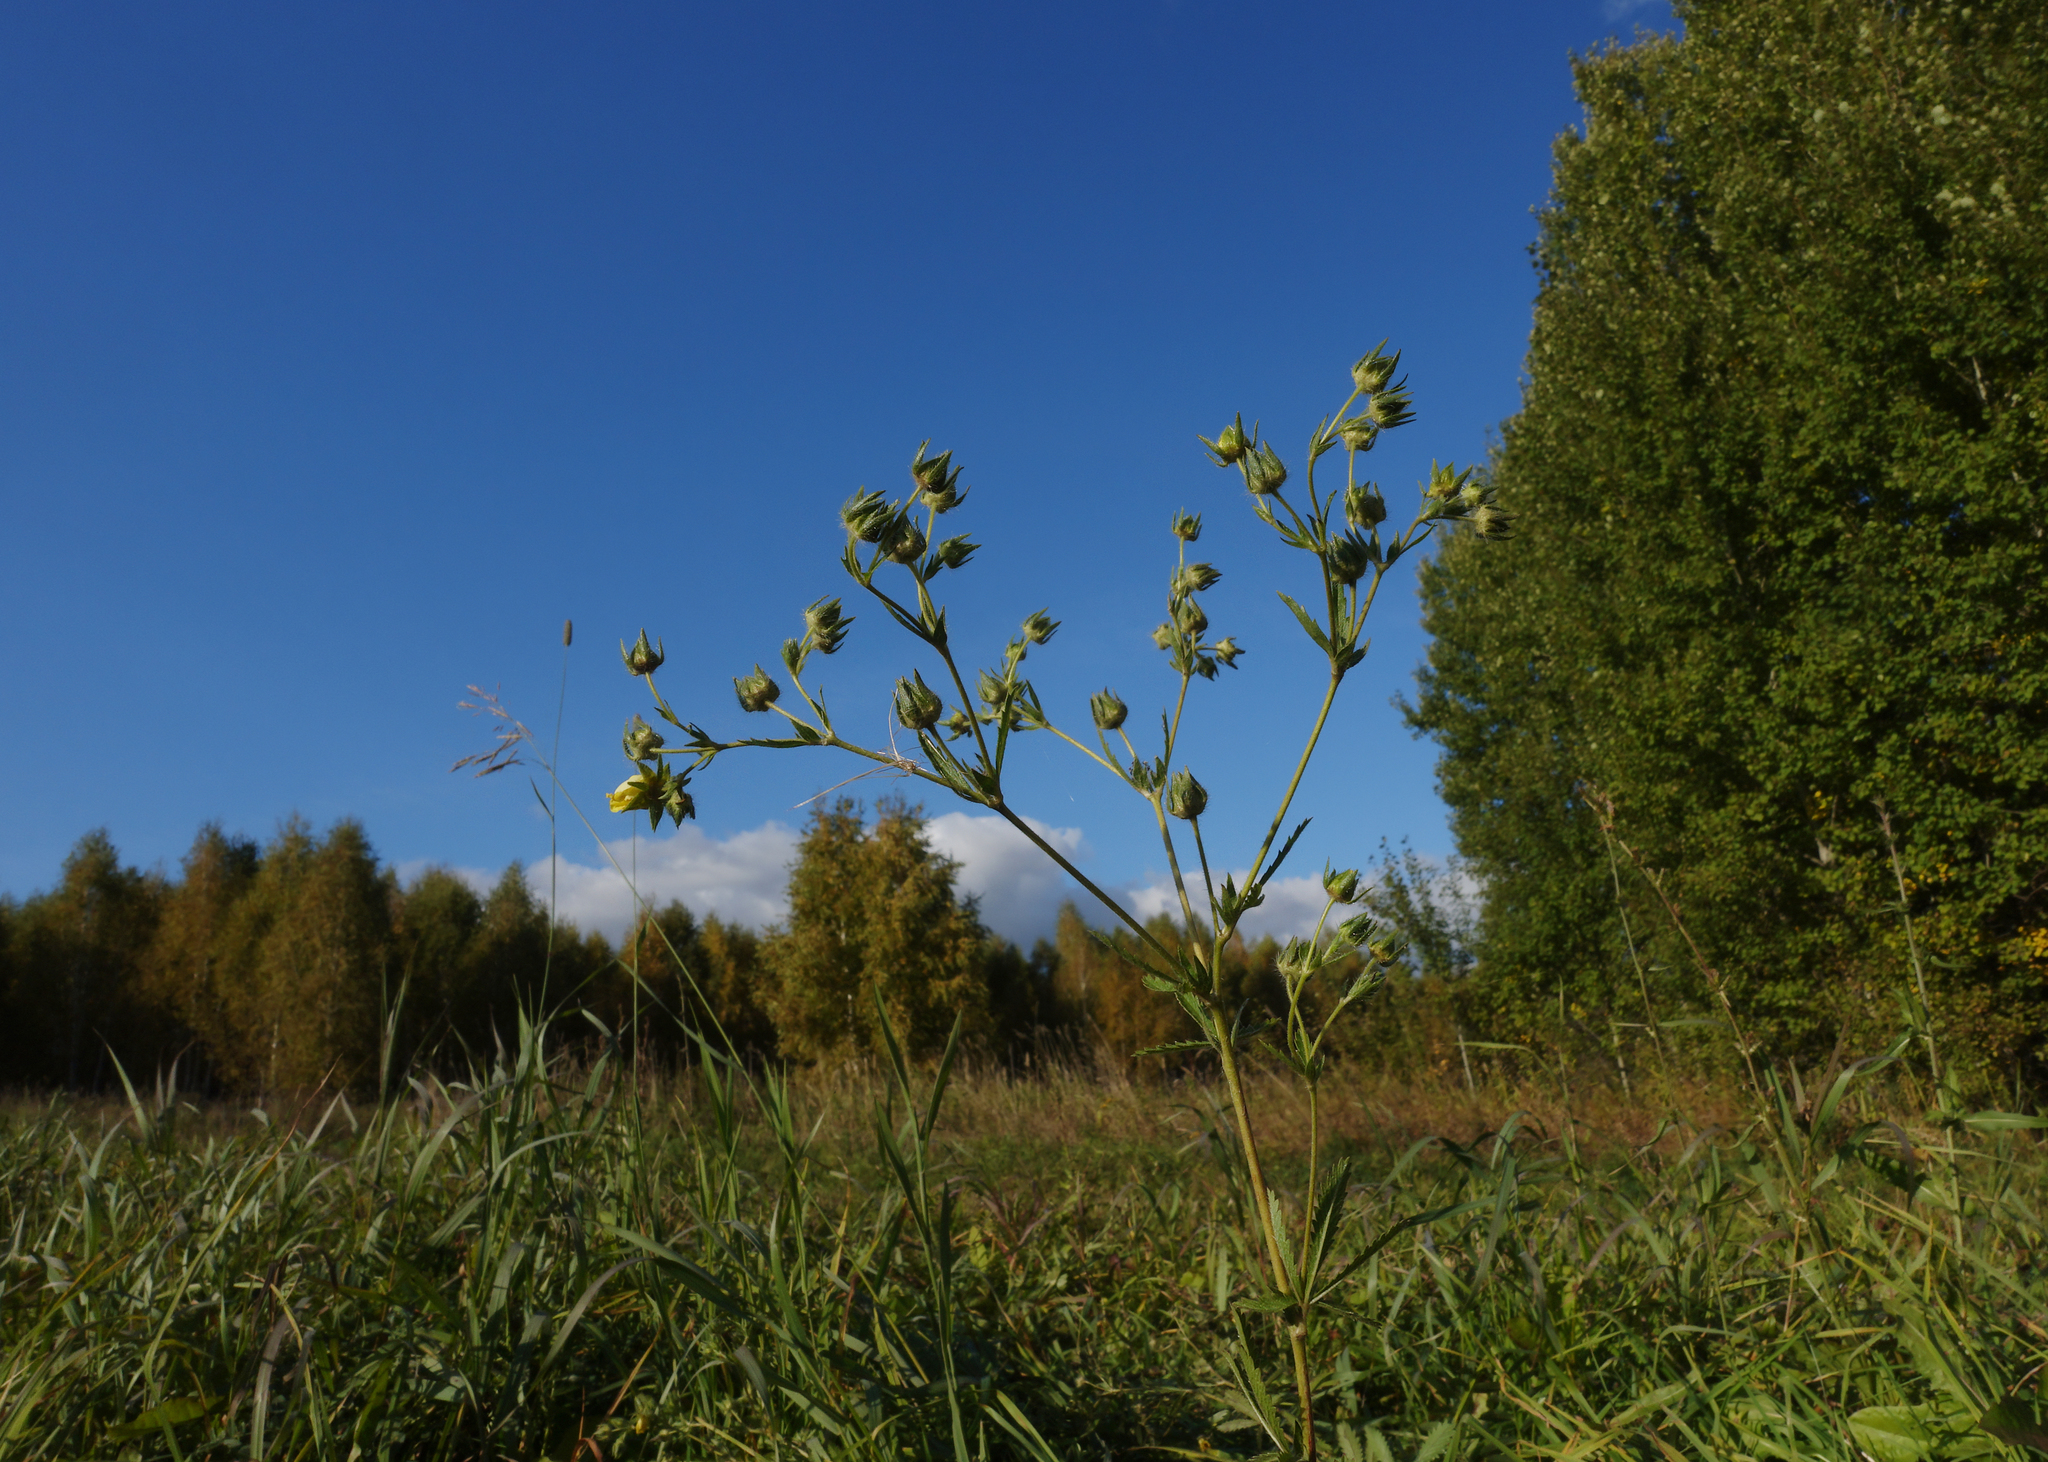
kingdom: Plantae
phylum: Tracheophyta
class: Magnoliopsida
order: Rosales
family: Rosaceae
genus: Potentilla
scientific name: Potentilla recta
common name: Sulphur cinquefoil
